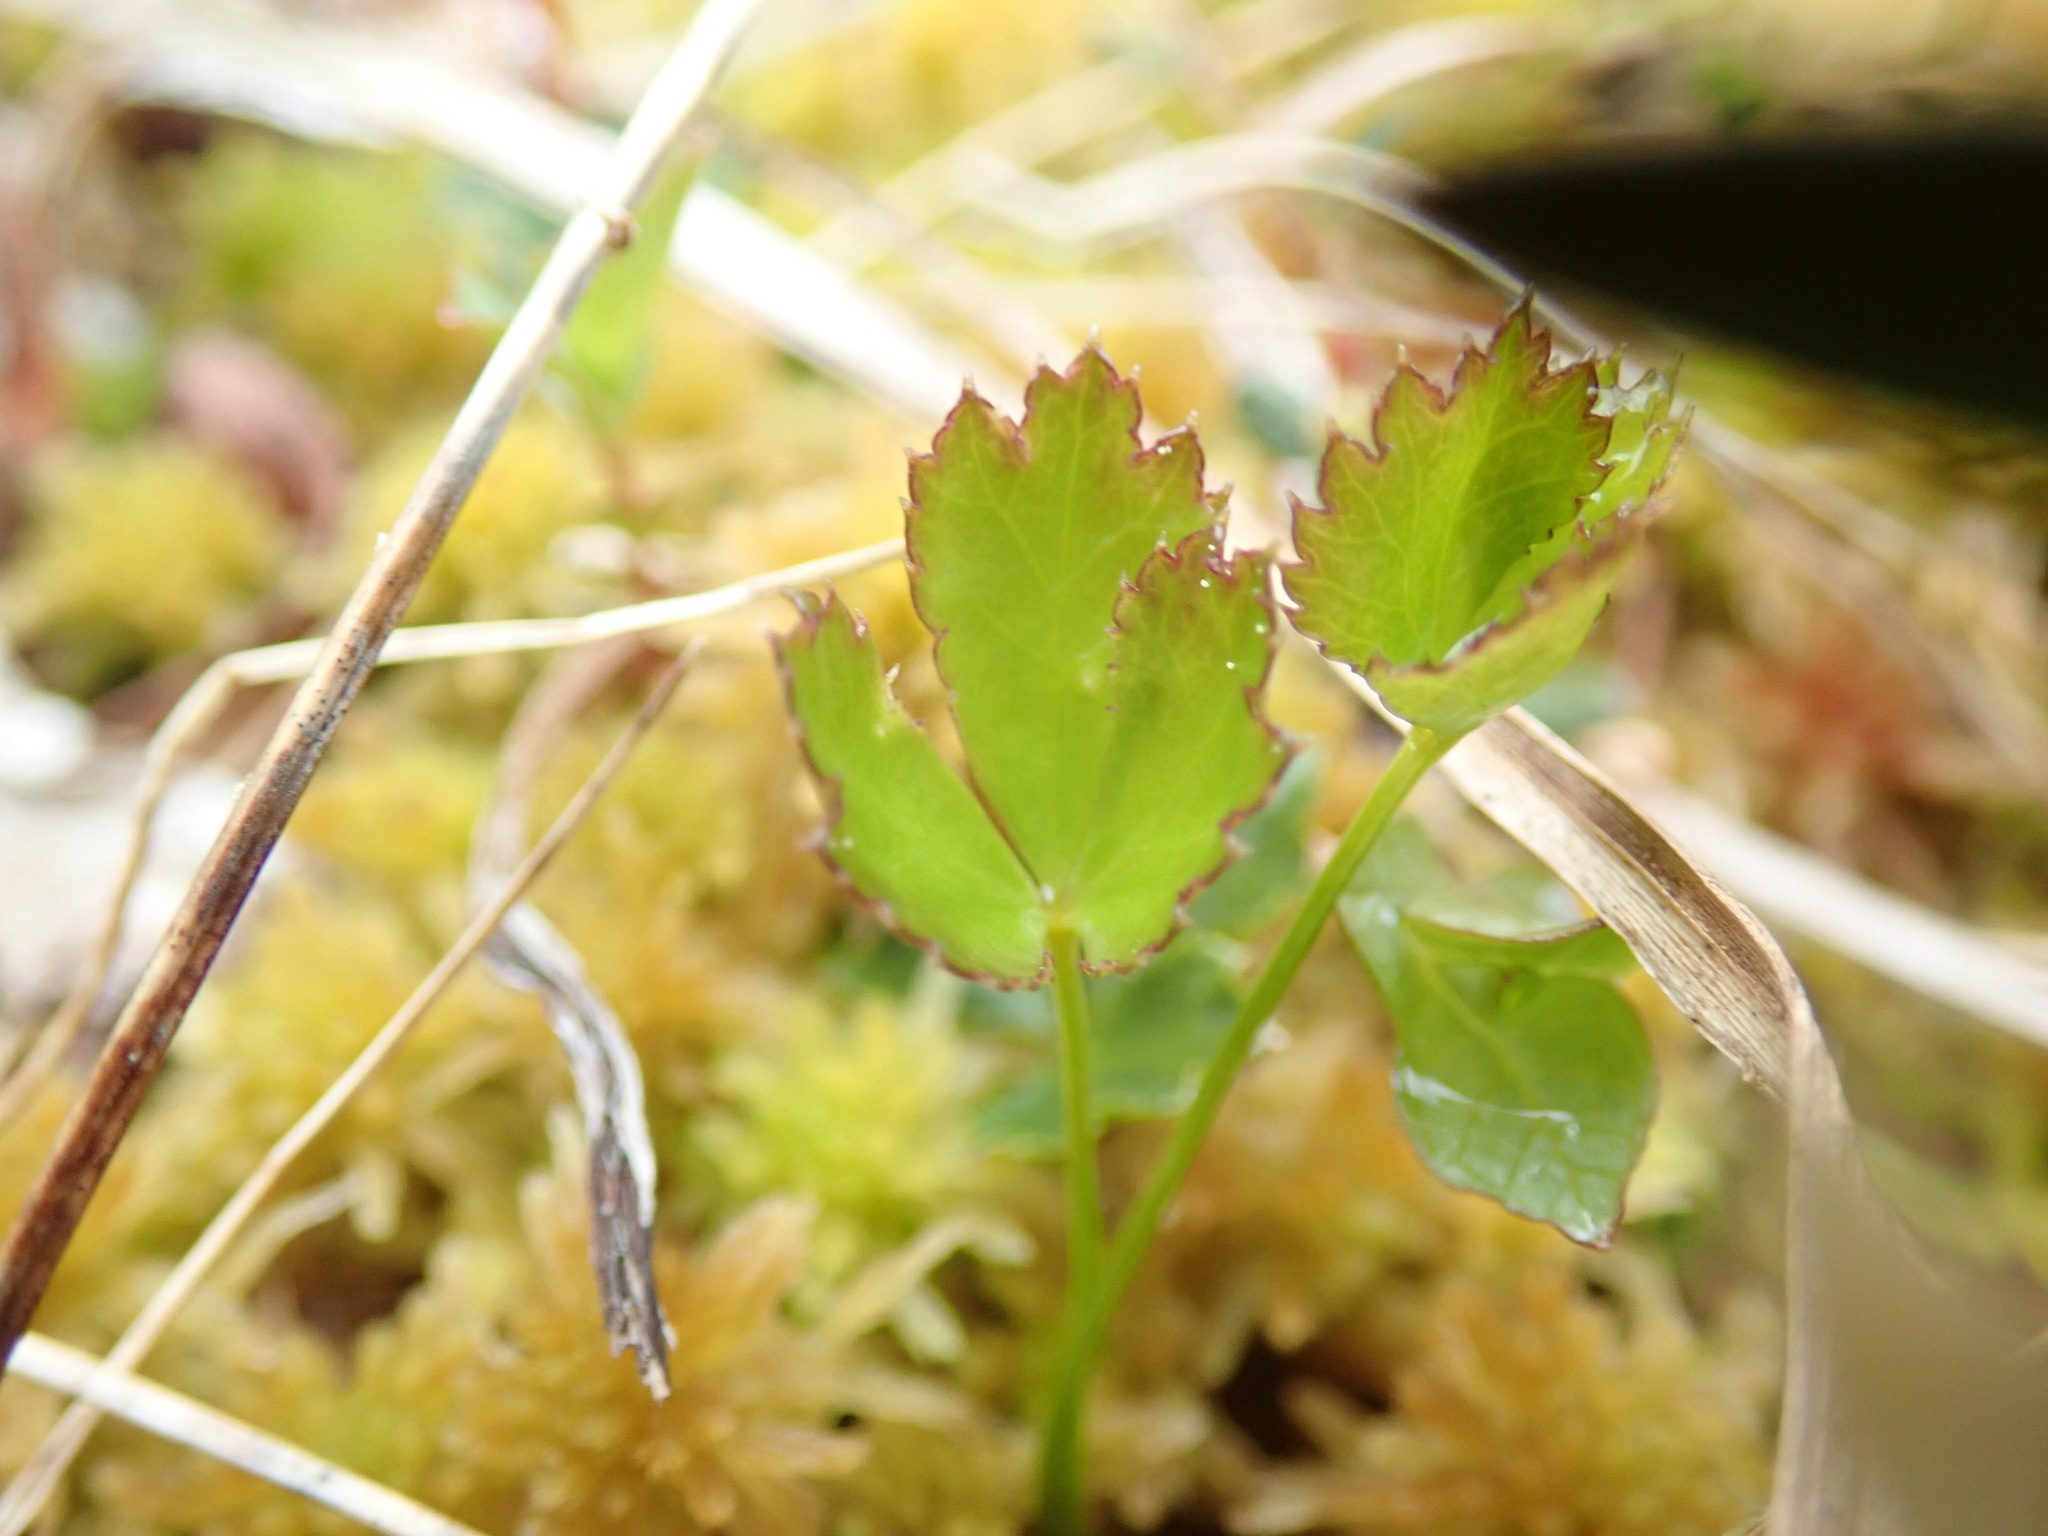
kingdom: Plantae
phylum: Tracheophyta
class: Magnoliopsida
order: Ranunculales
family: Ranunculaceae
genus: Coptis
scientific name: Coptis trifolia
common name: Canker-root
